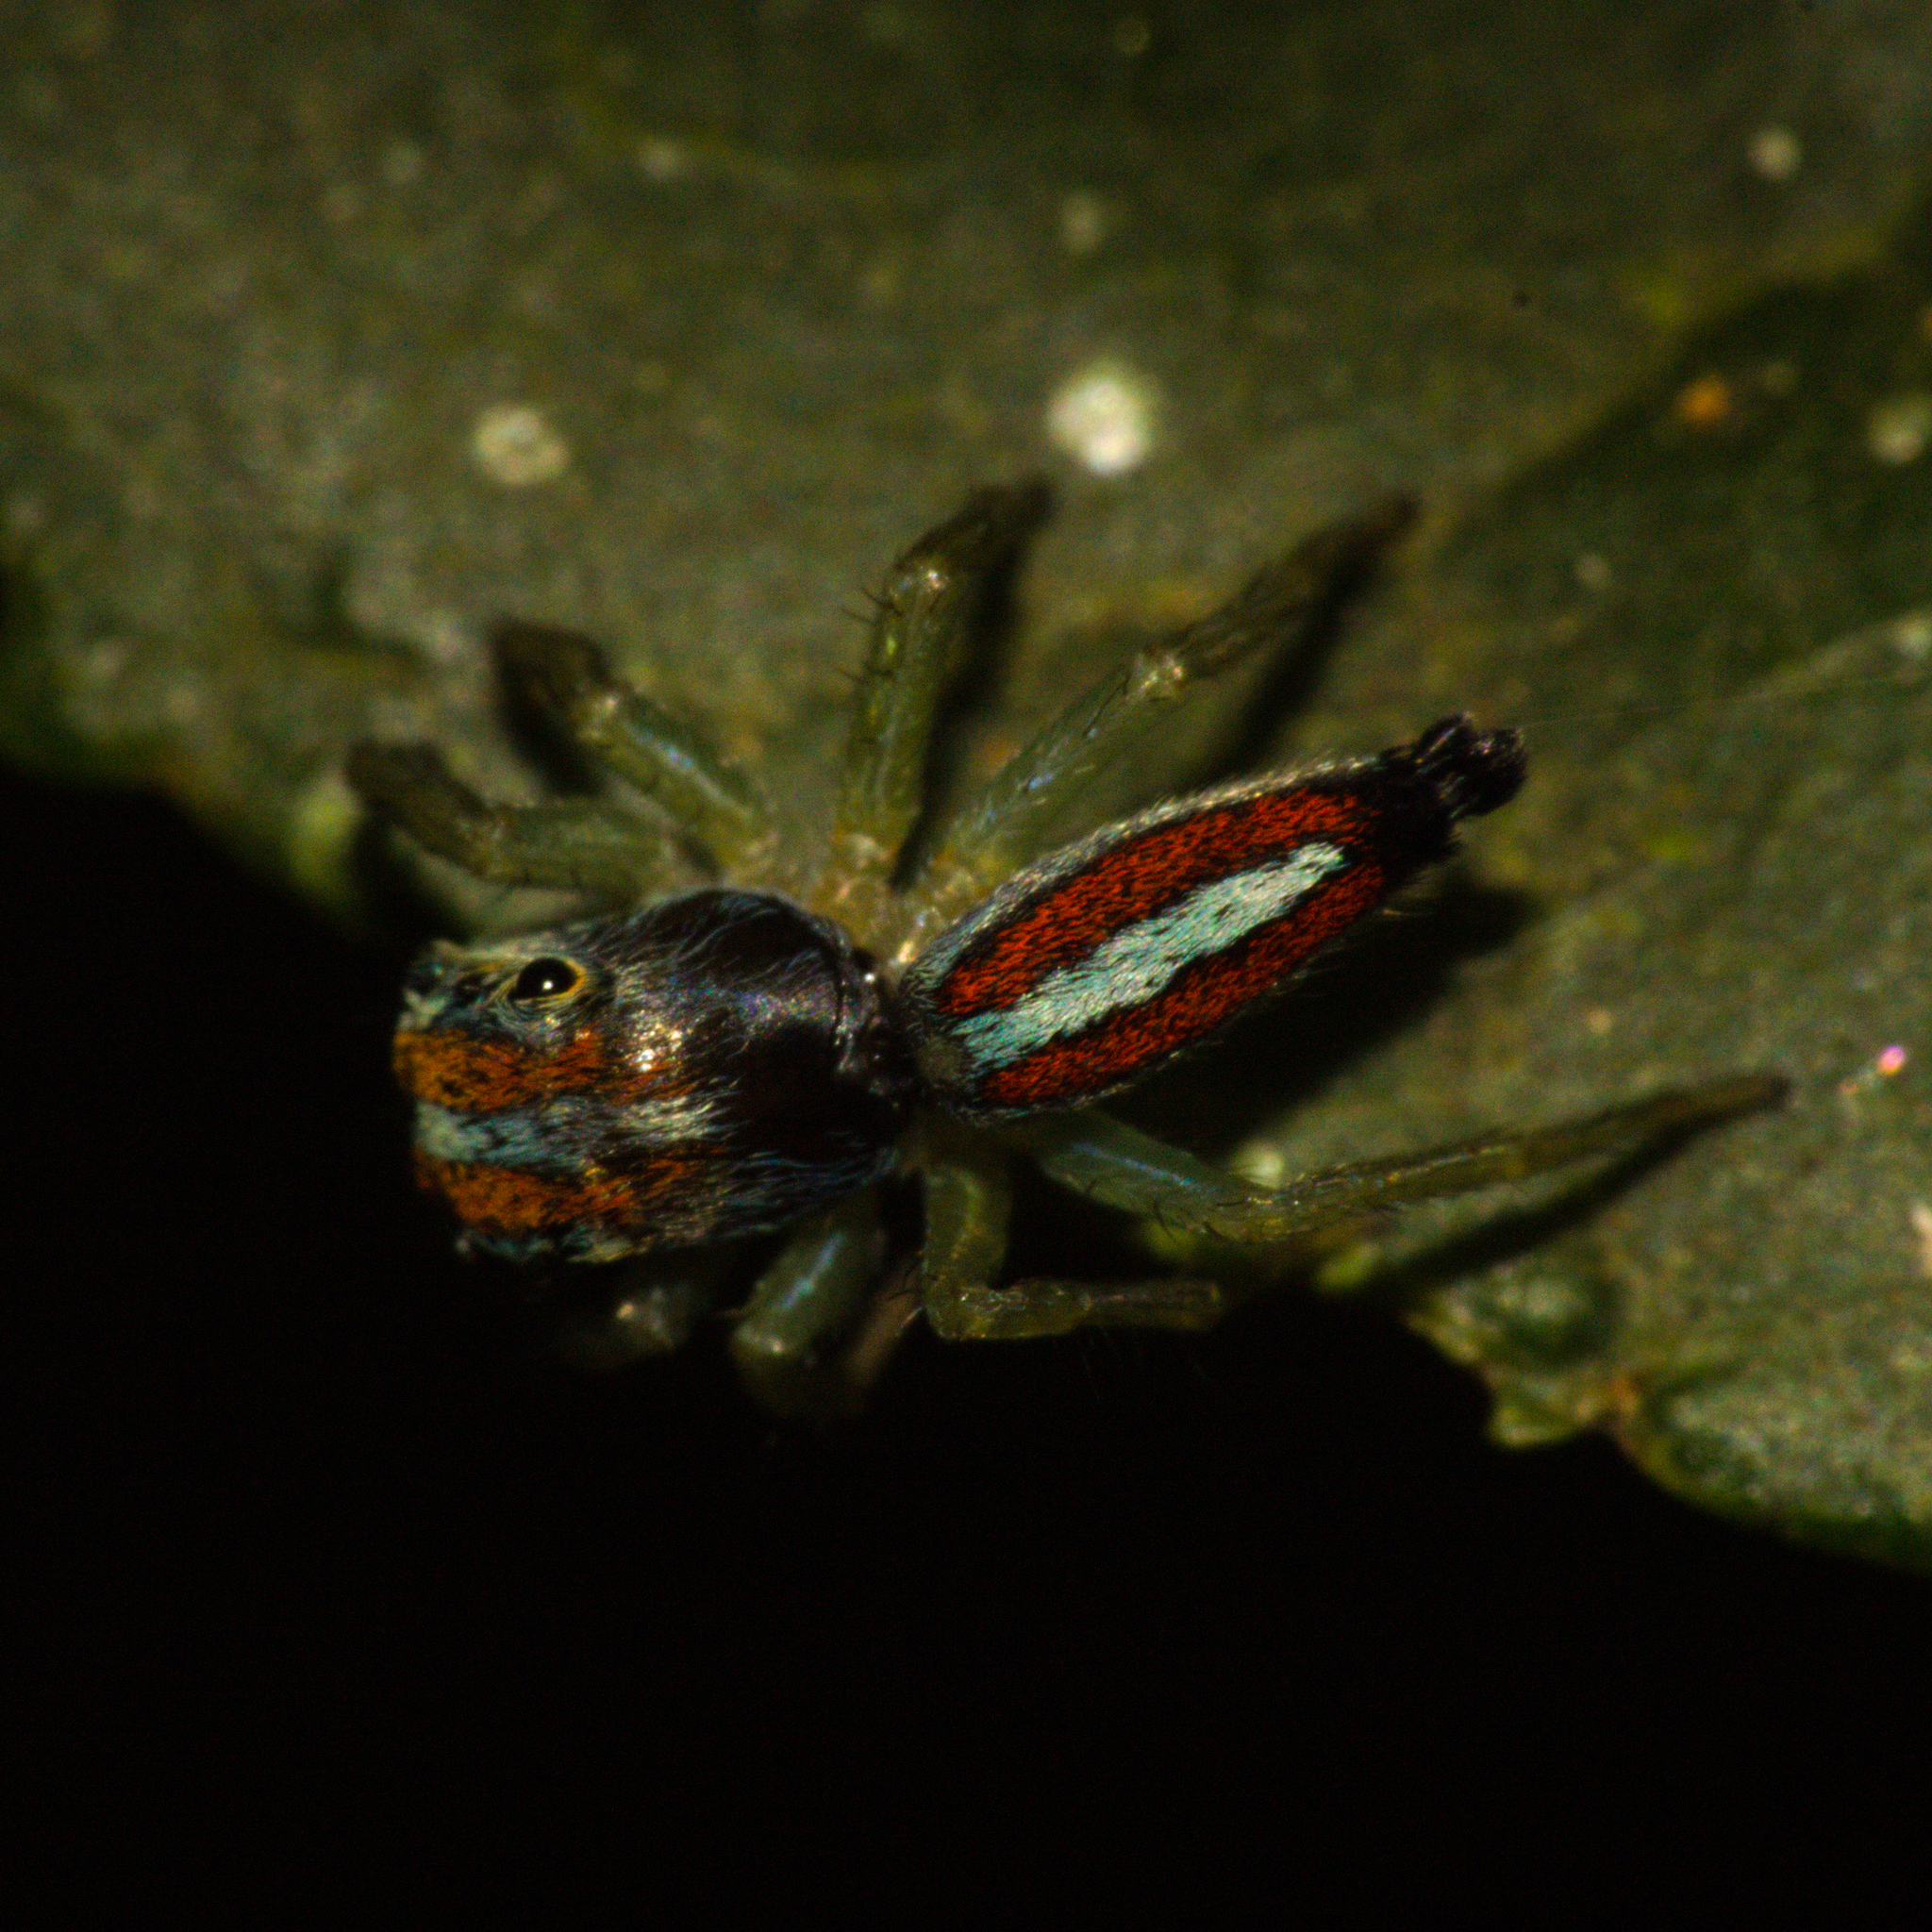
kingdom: Animalia
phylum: Arthropoda
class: Arachnida
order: Araneae
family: Salticidae
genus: Ilargus
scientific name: Ilargus coccineus
